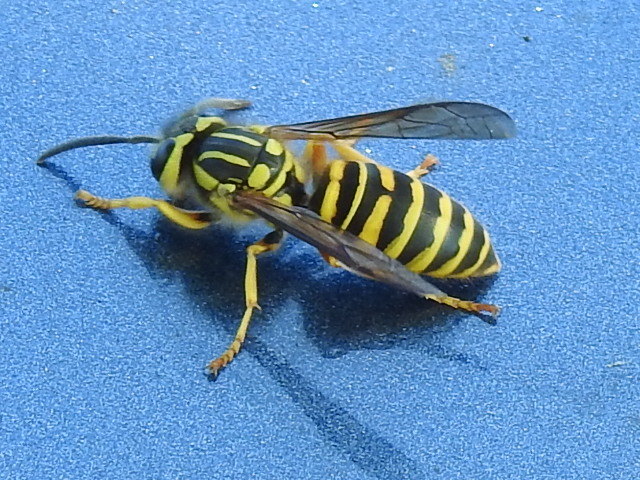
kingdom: Animalia
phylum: Arthropoda
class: Insecta
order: Hymenoptera
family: Vespidae
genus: Vespula
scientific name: Vespula squamosa
